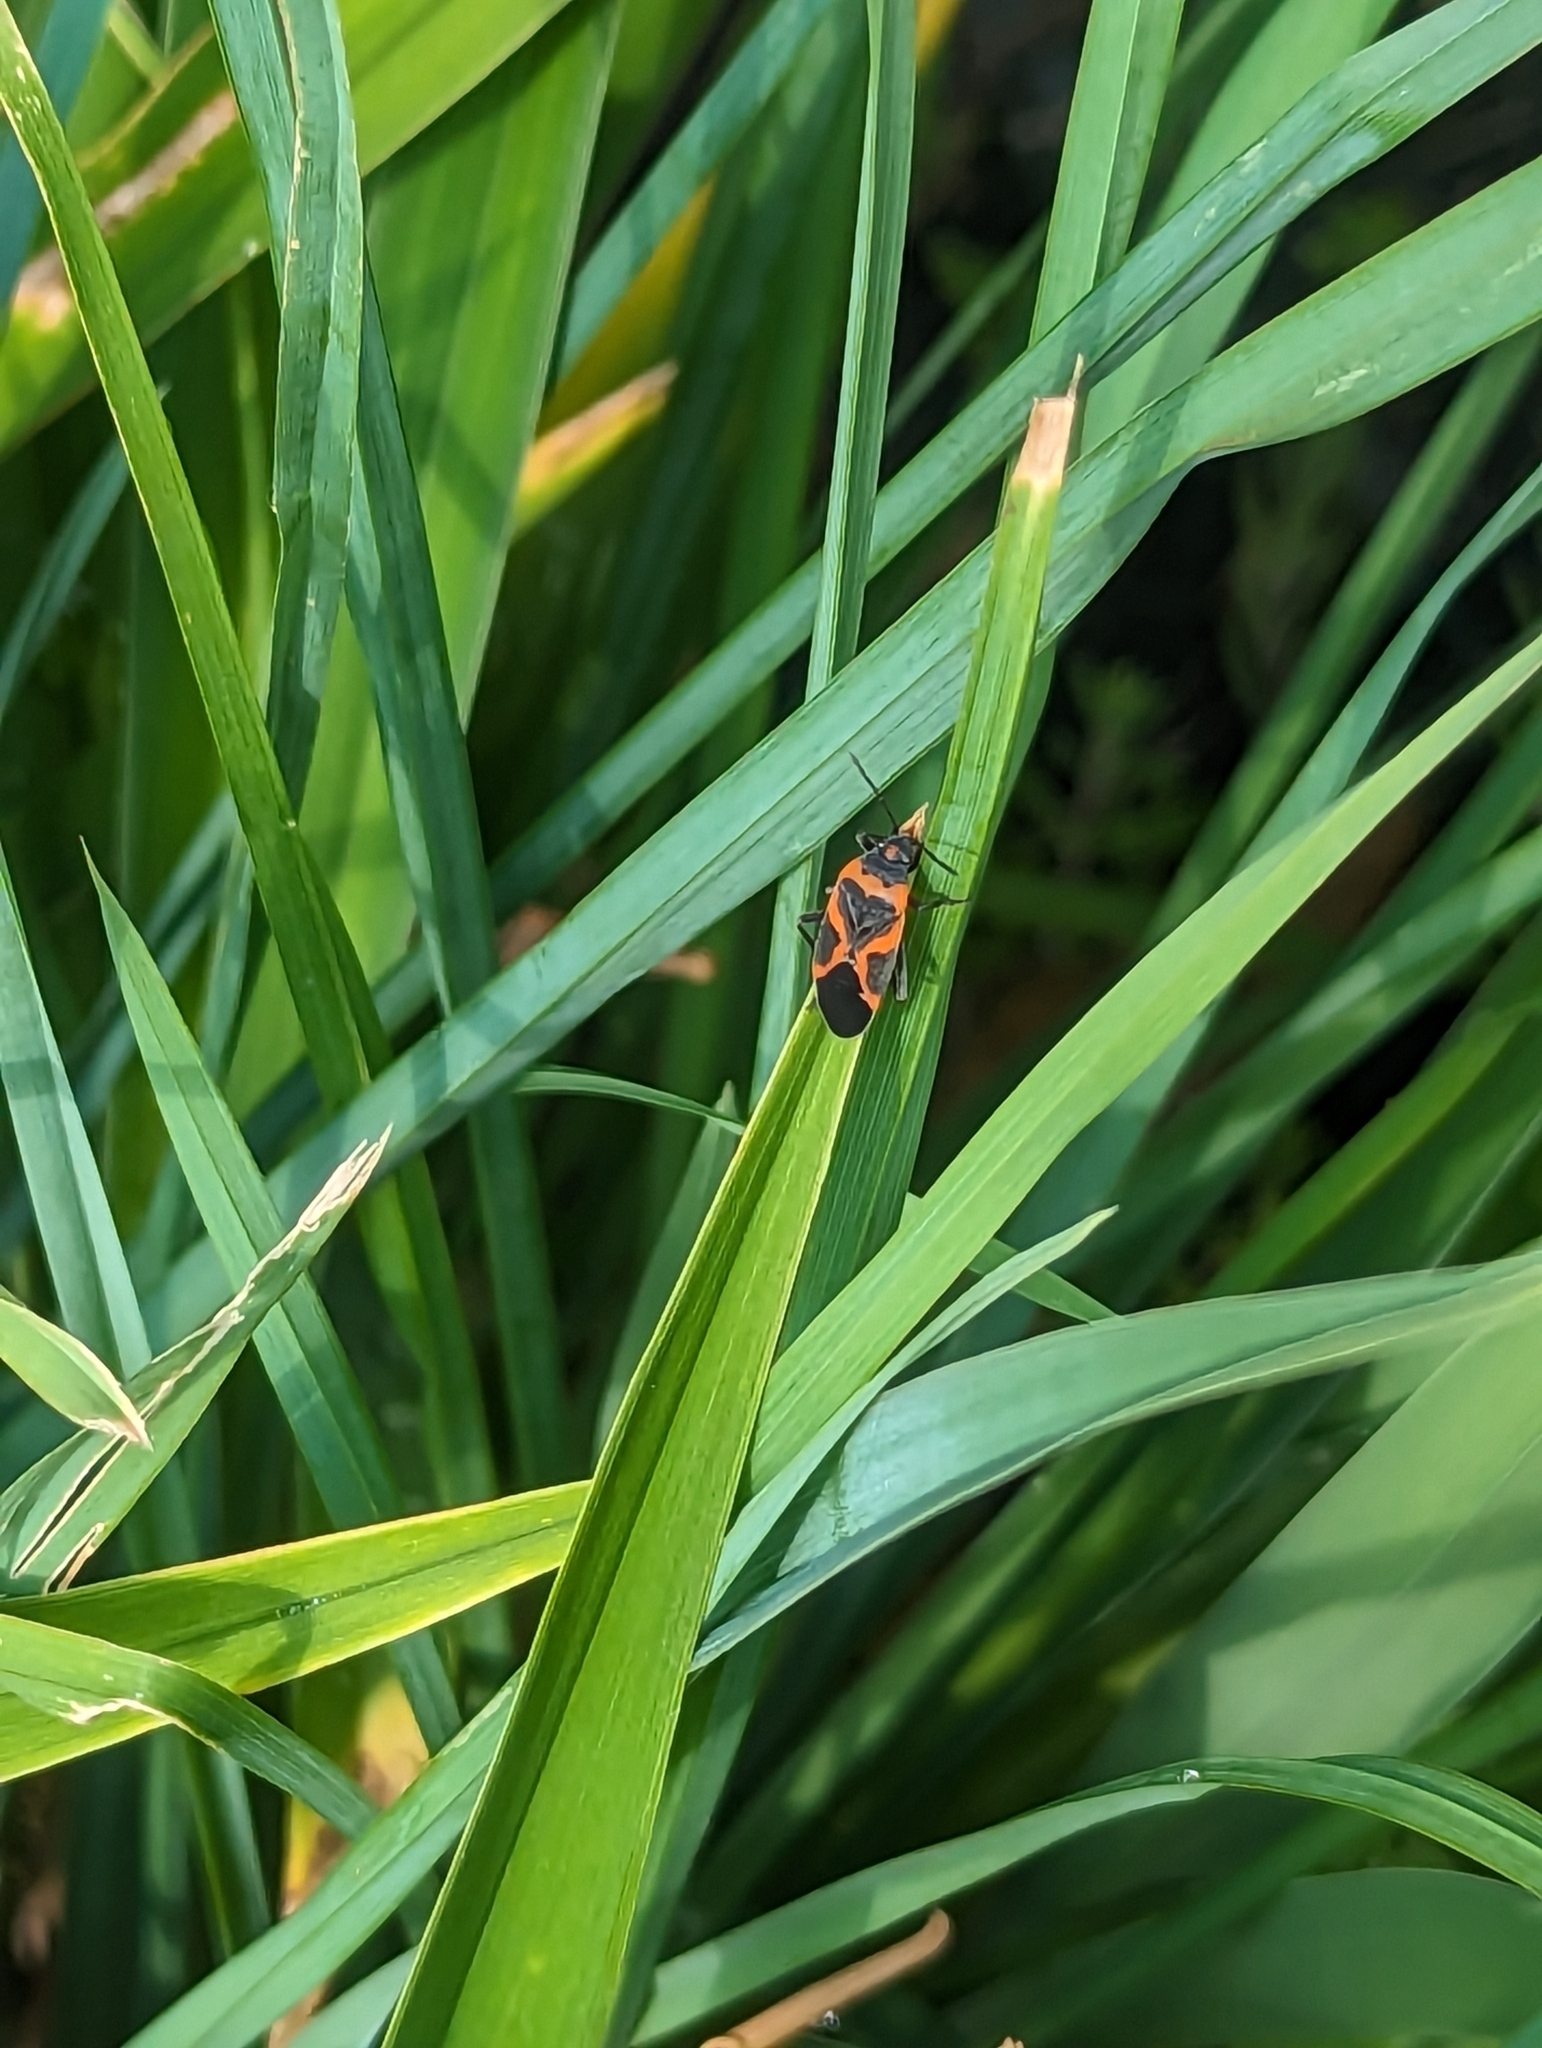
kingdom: Animalia
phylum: Arthropoda
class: Insecta
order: Hemiptera
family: Lygaeidae
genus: Lygaeus
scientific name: Lygaeus kalmii
